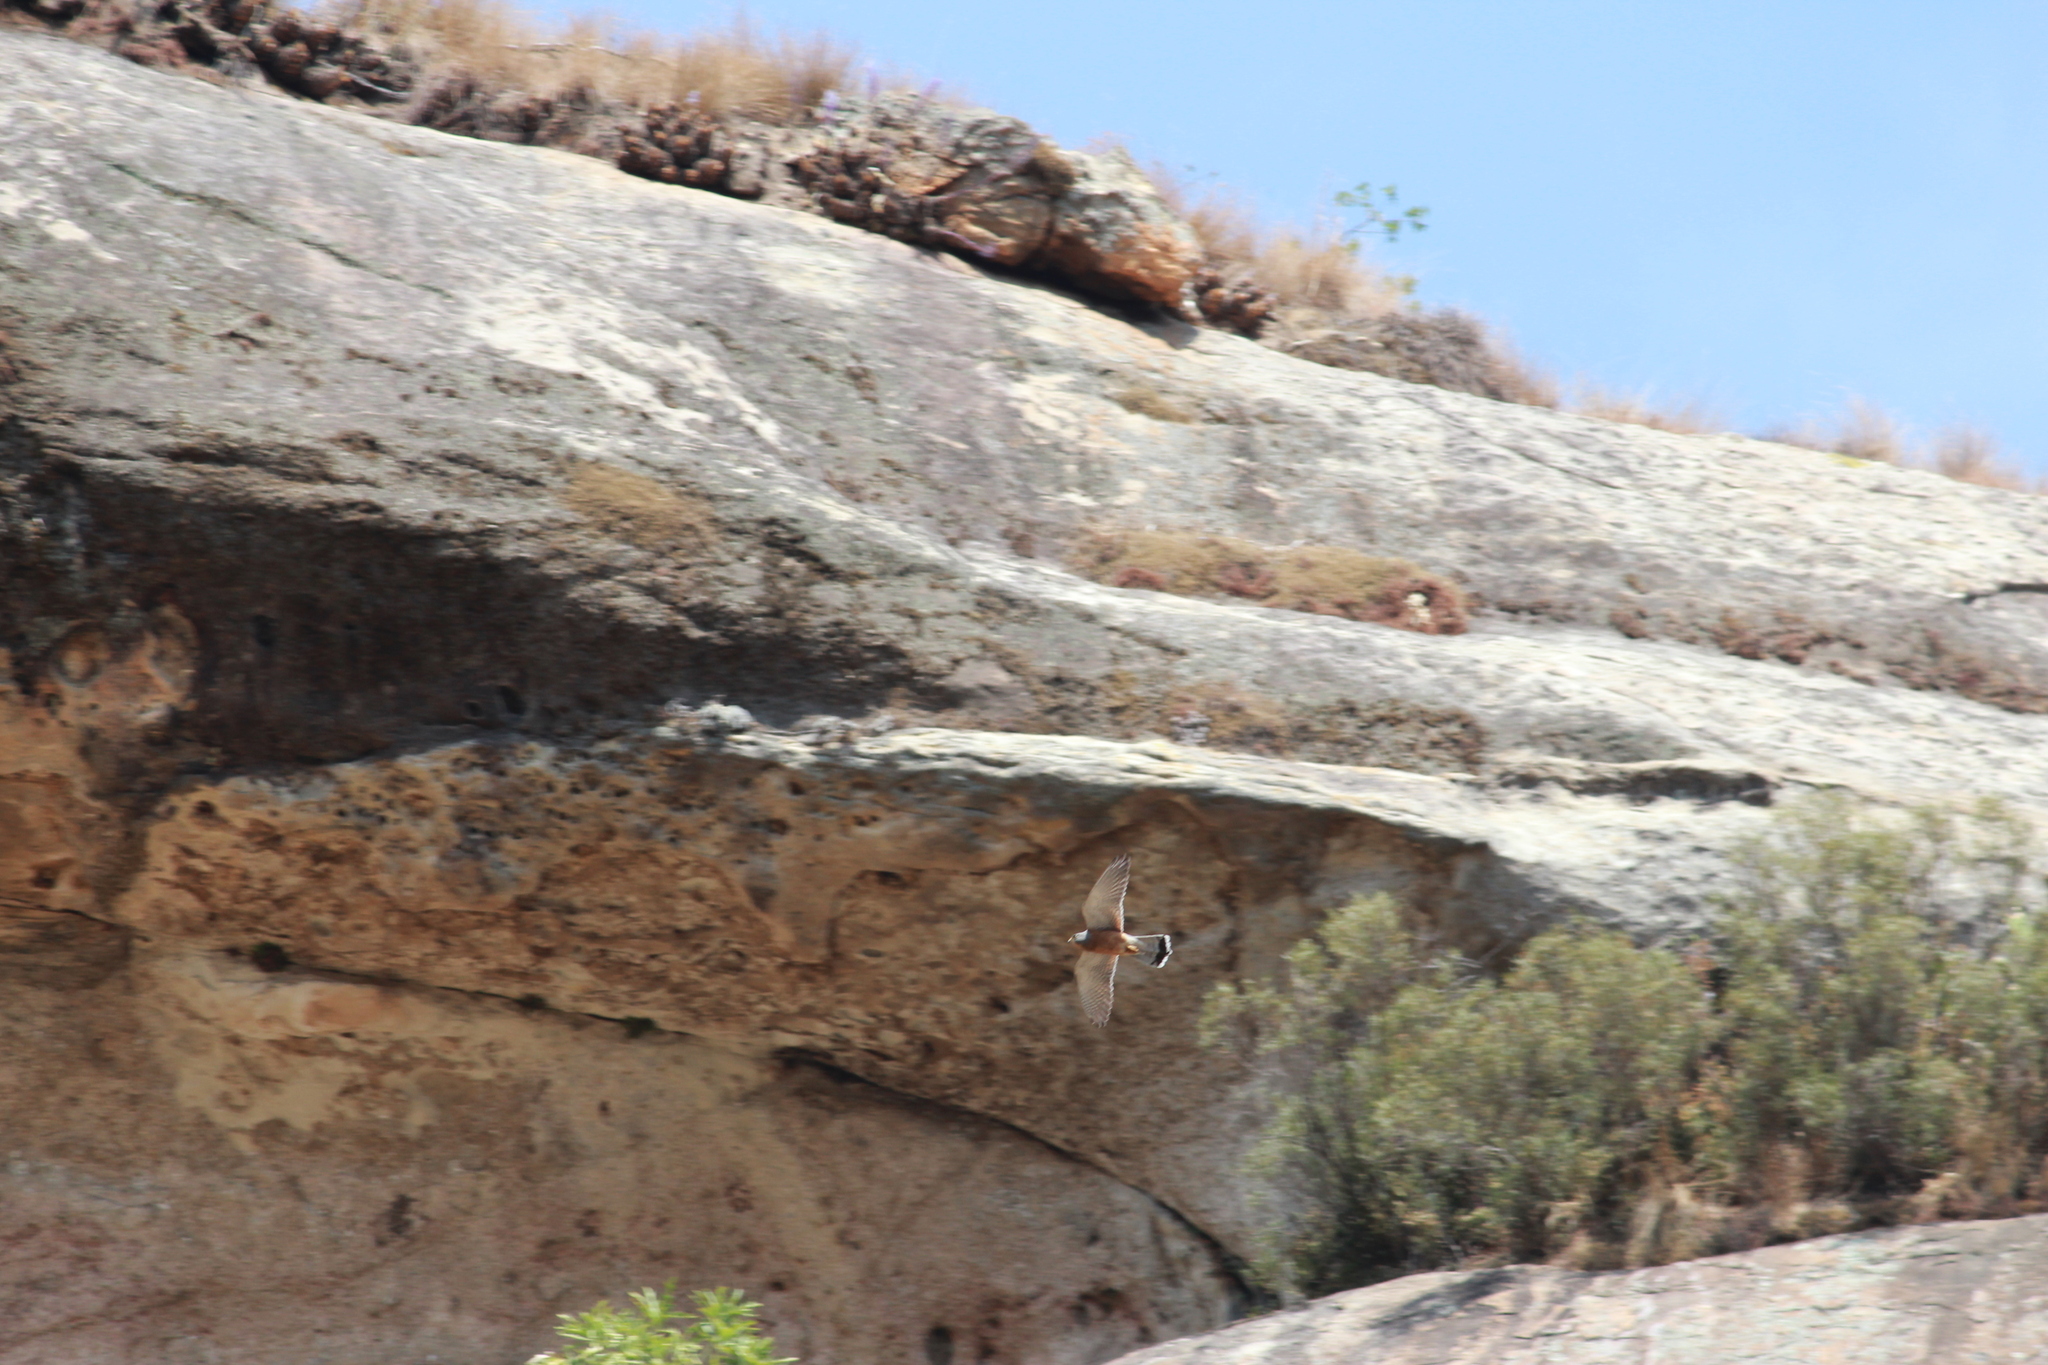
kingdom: Animalia
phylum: Chordata
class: Aves
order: Falconiformes
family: Falconidae
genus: Falco
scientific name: Falco rupicolus
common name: Rock kestrel
